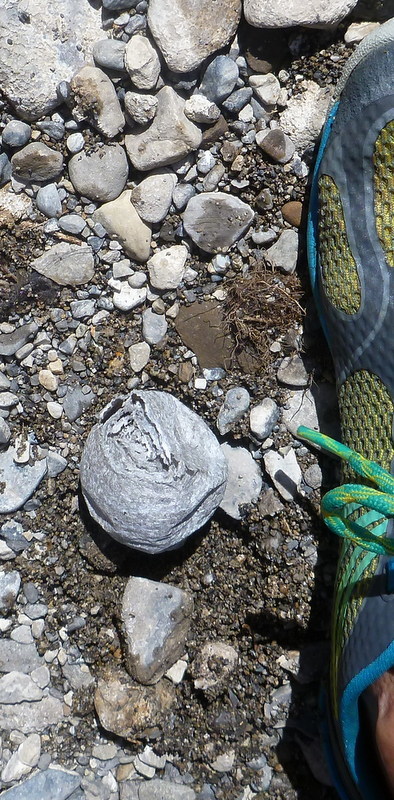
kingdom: Animalia
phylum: Arthropoda
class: Insecta
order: Hymenoptera
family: Vespidae
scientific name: Vespidae
